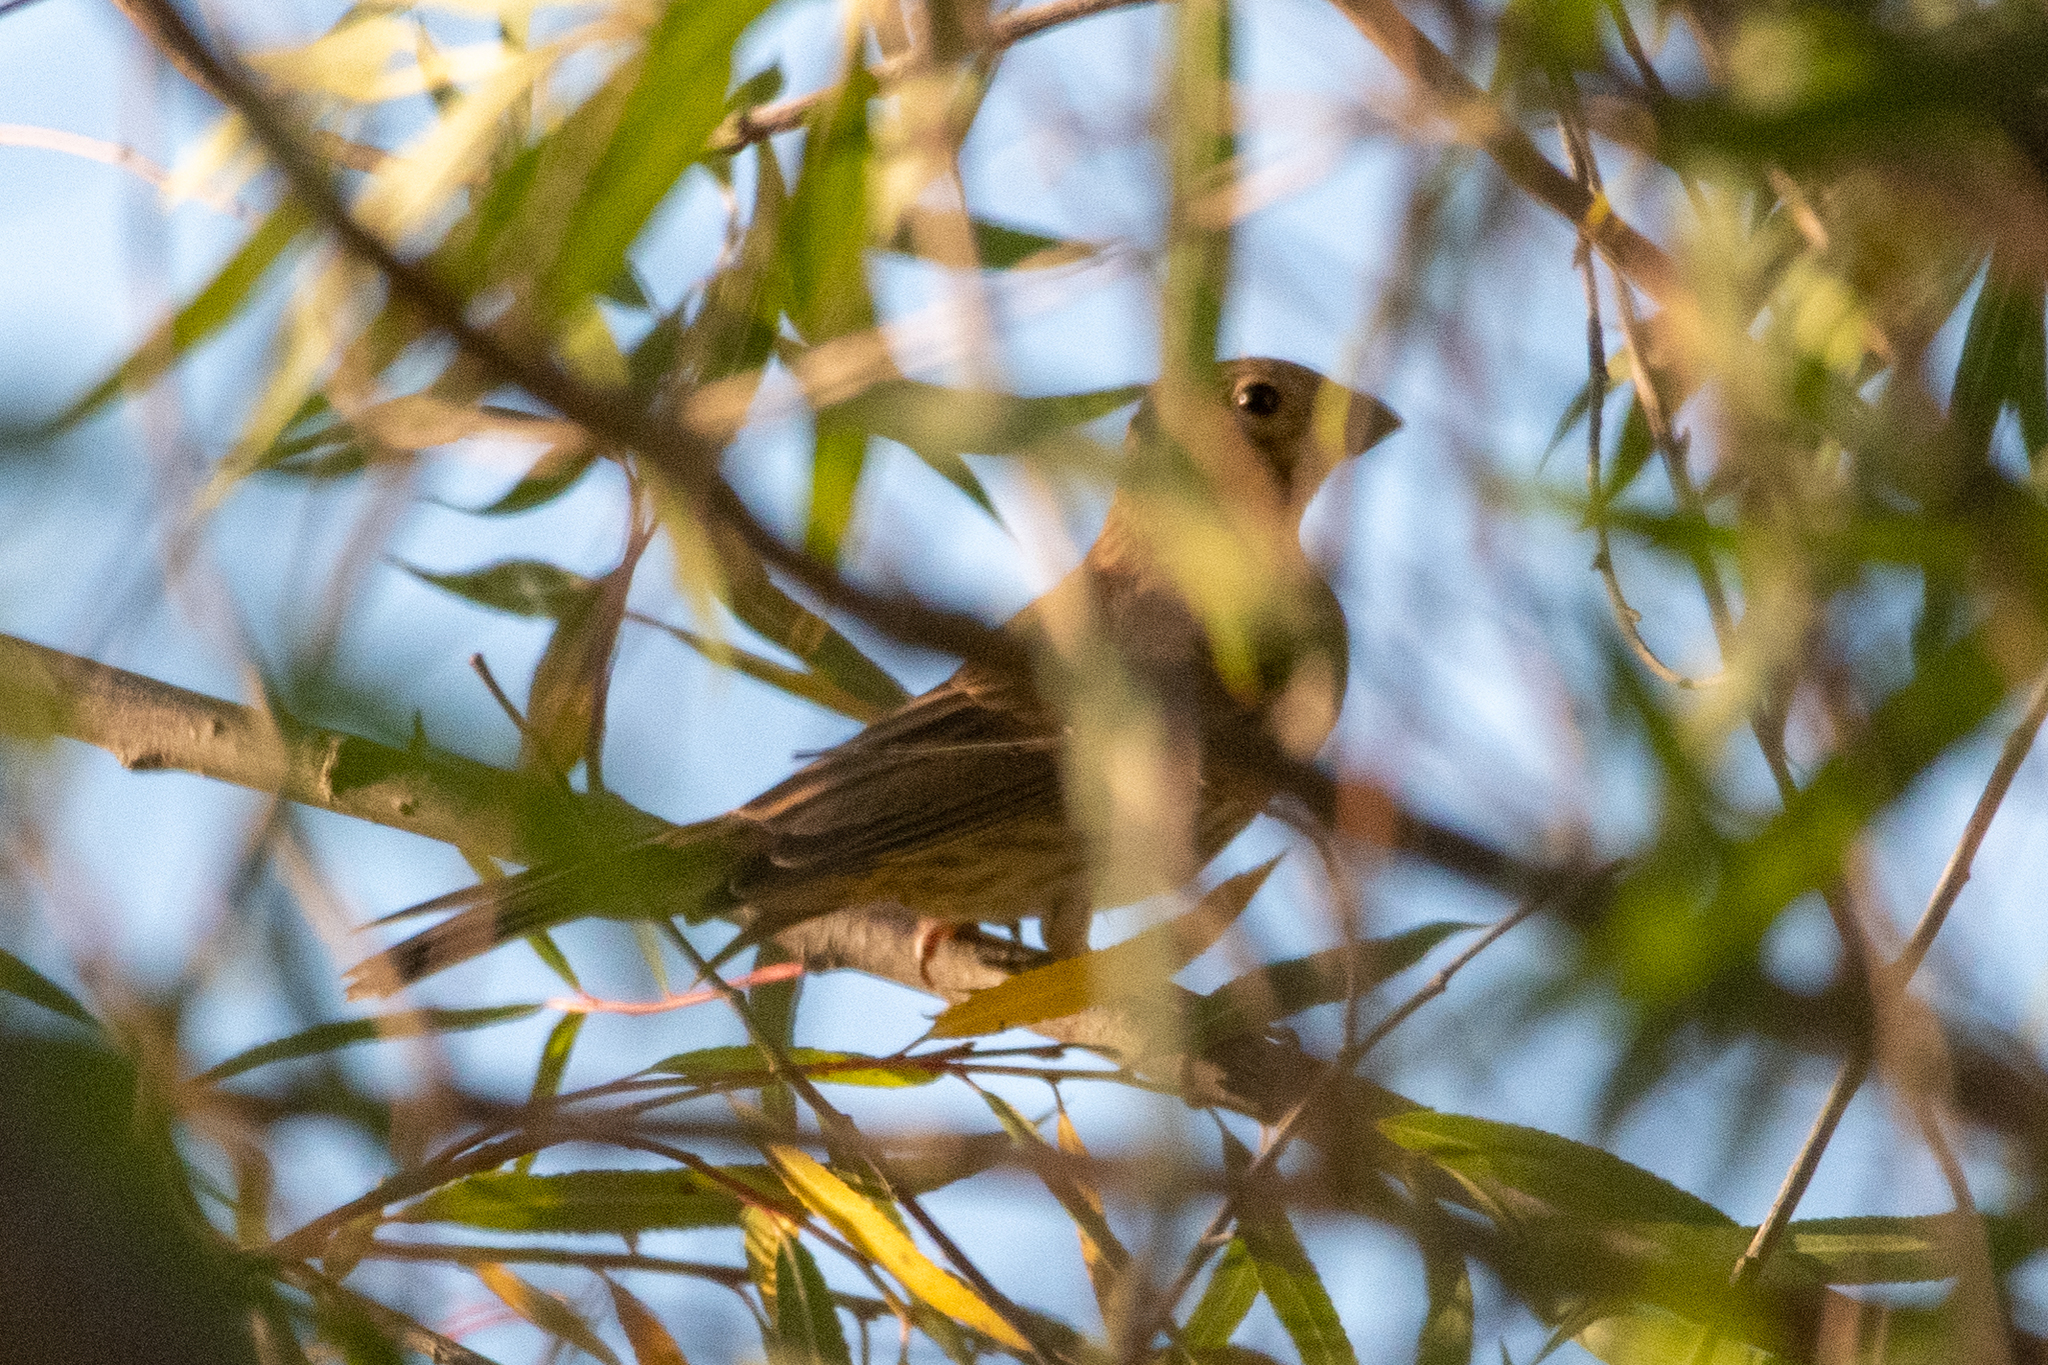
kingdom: Animalia
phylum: Chordata
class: Aves
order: Passeriformes
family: Fringillidae
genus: Haemorhous
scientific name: Haemorhous mexicanus
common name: House finch
